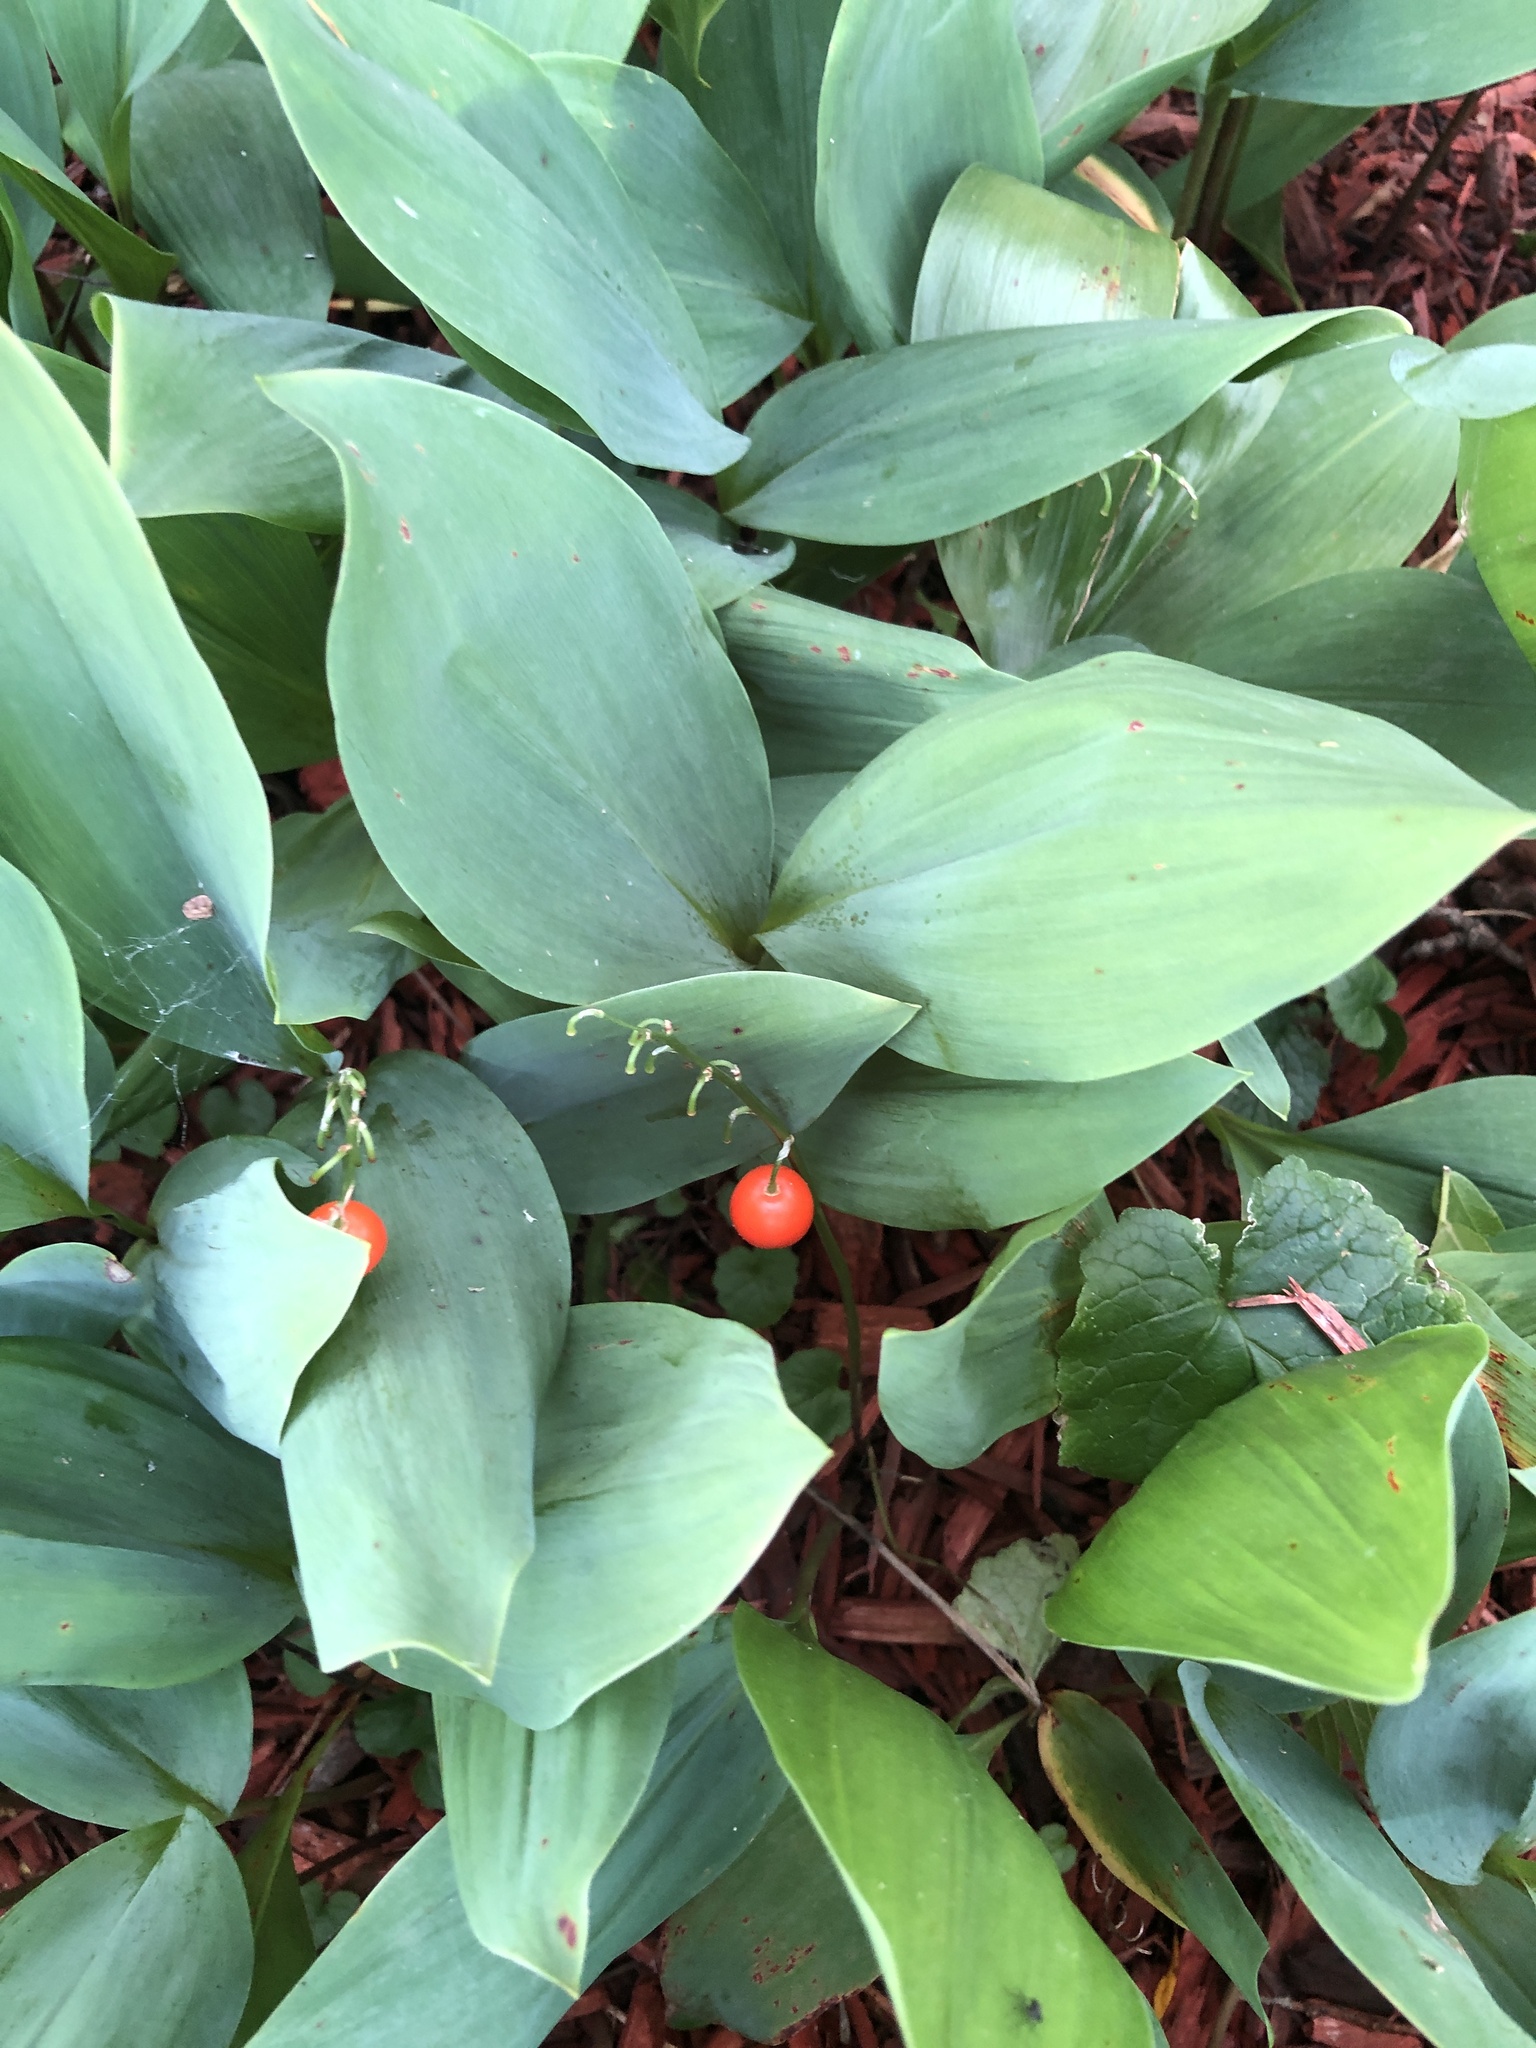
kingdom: Plantae
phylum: Tracheophyta
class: Liliopsida
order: Asparagales
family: Asparagaceae
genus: Convallaria
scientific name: Convallaria majalis
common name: Lily-of-the-valley
